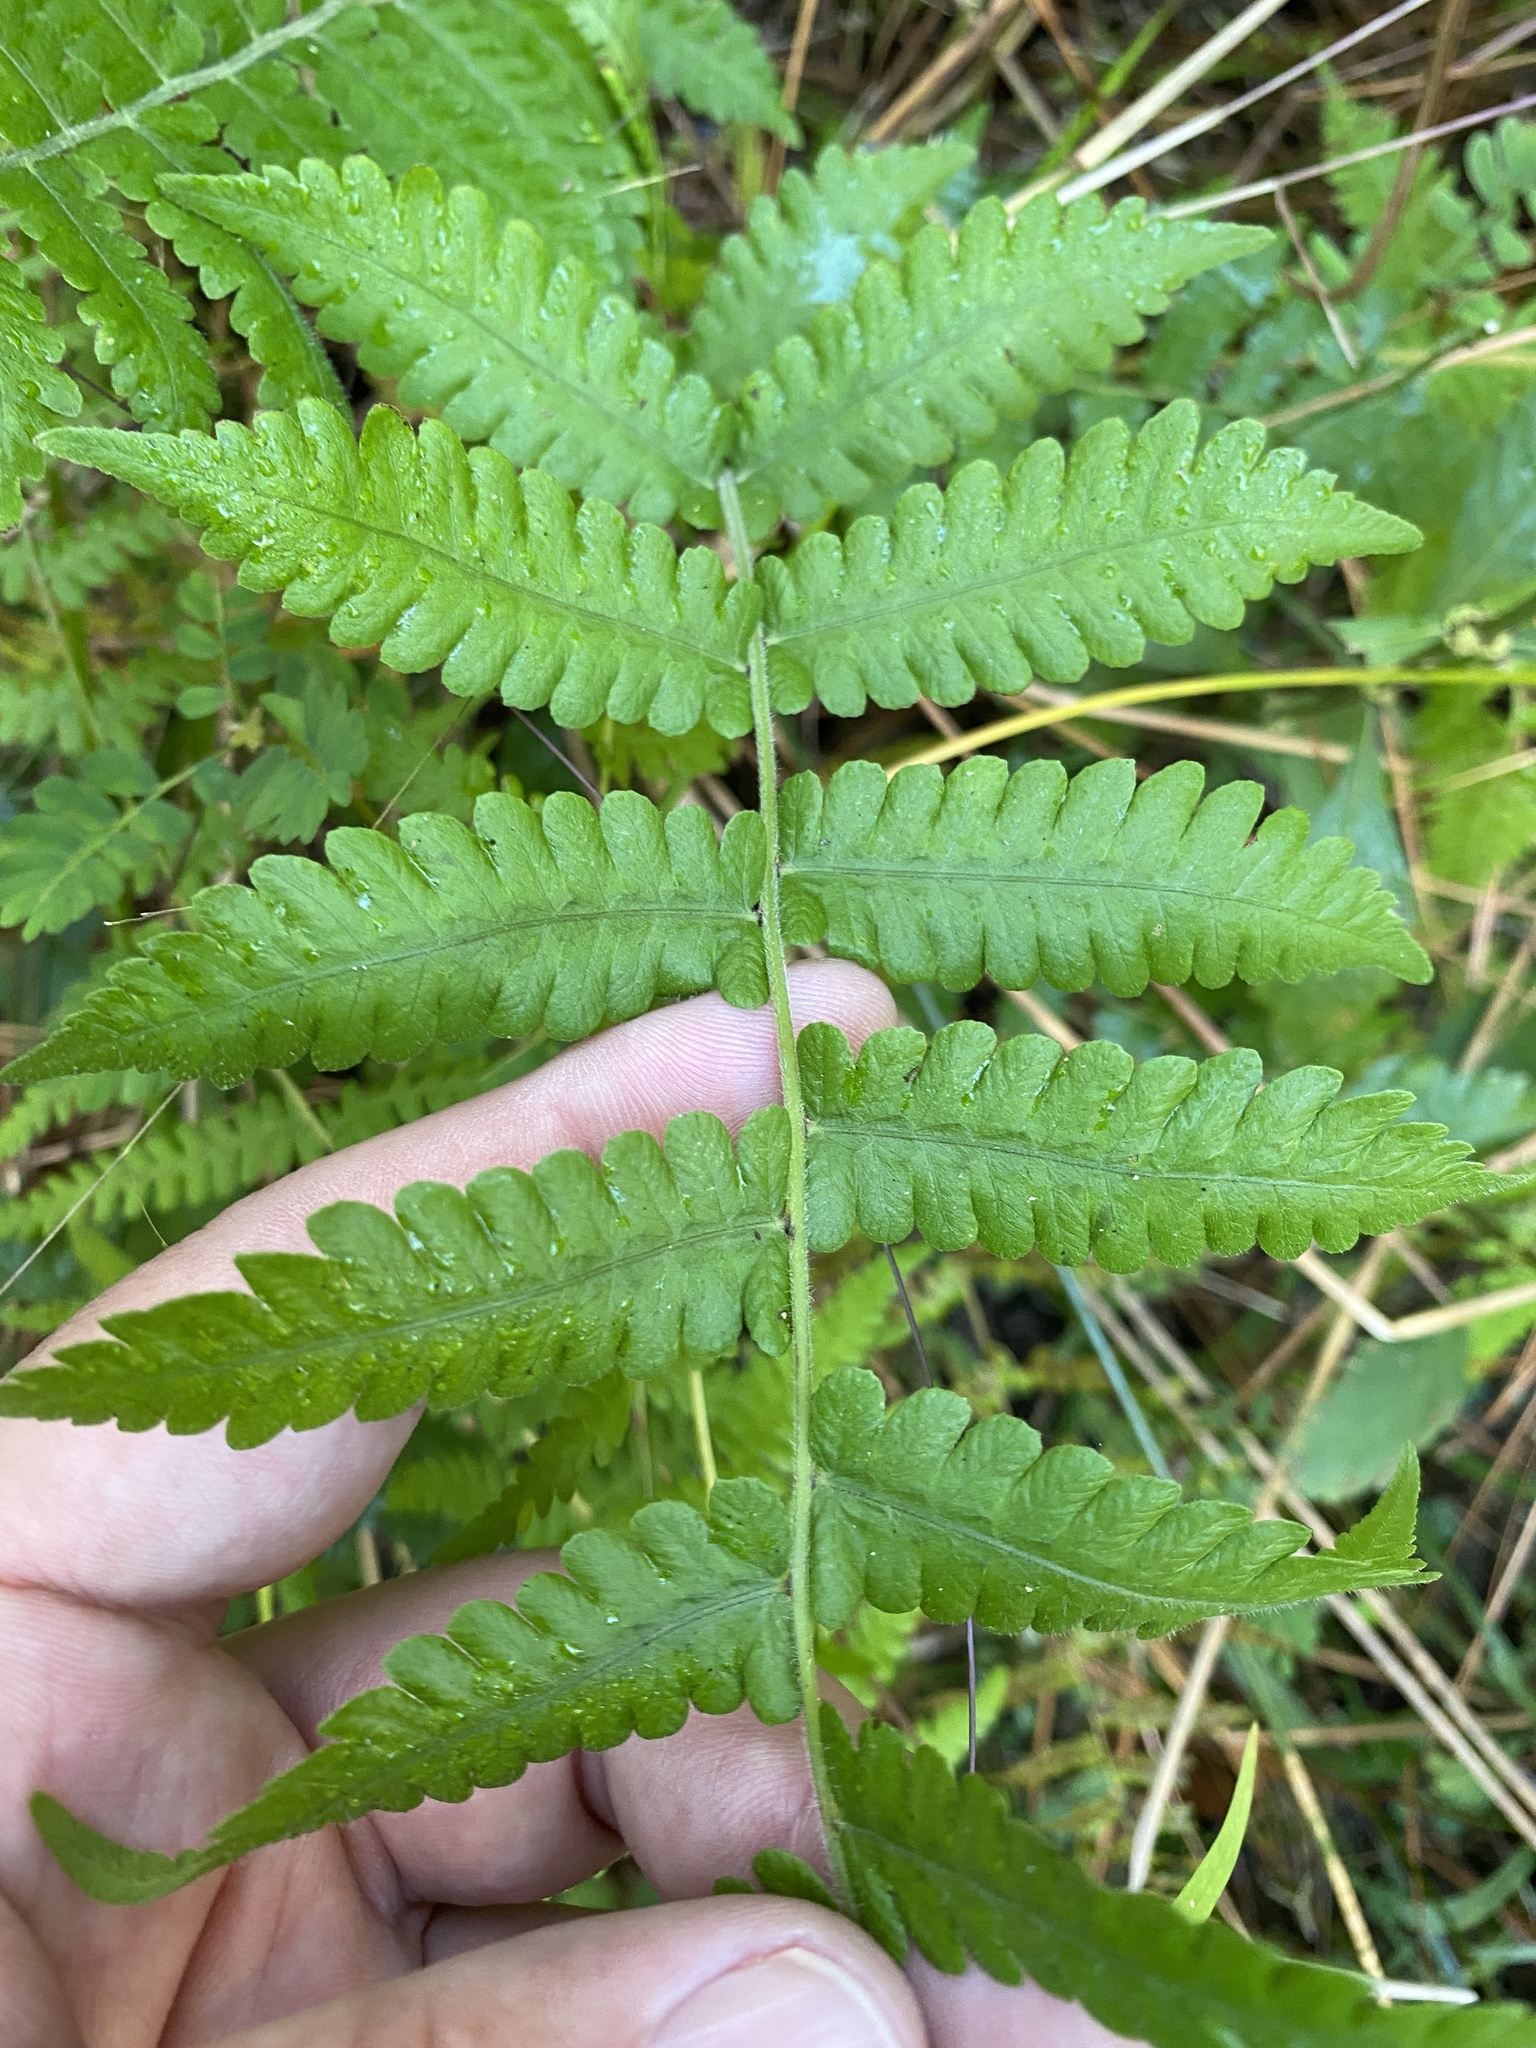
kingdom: Plantae
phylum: Tracheophyta
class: Polypodiopsida
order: Polypodiales
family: Thelypteridaceae
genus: Christella
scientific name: Christella dentata
